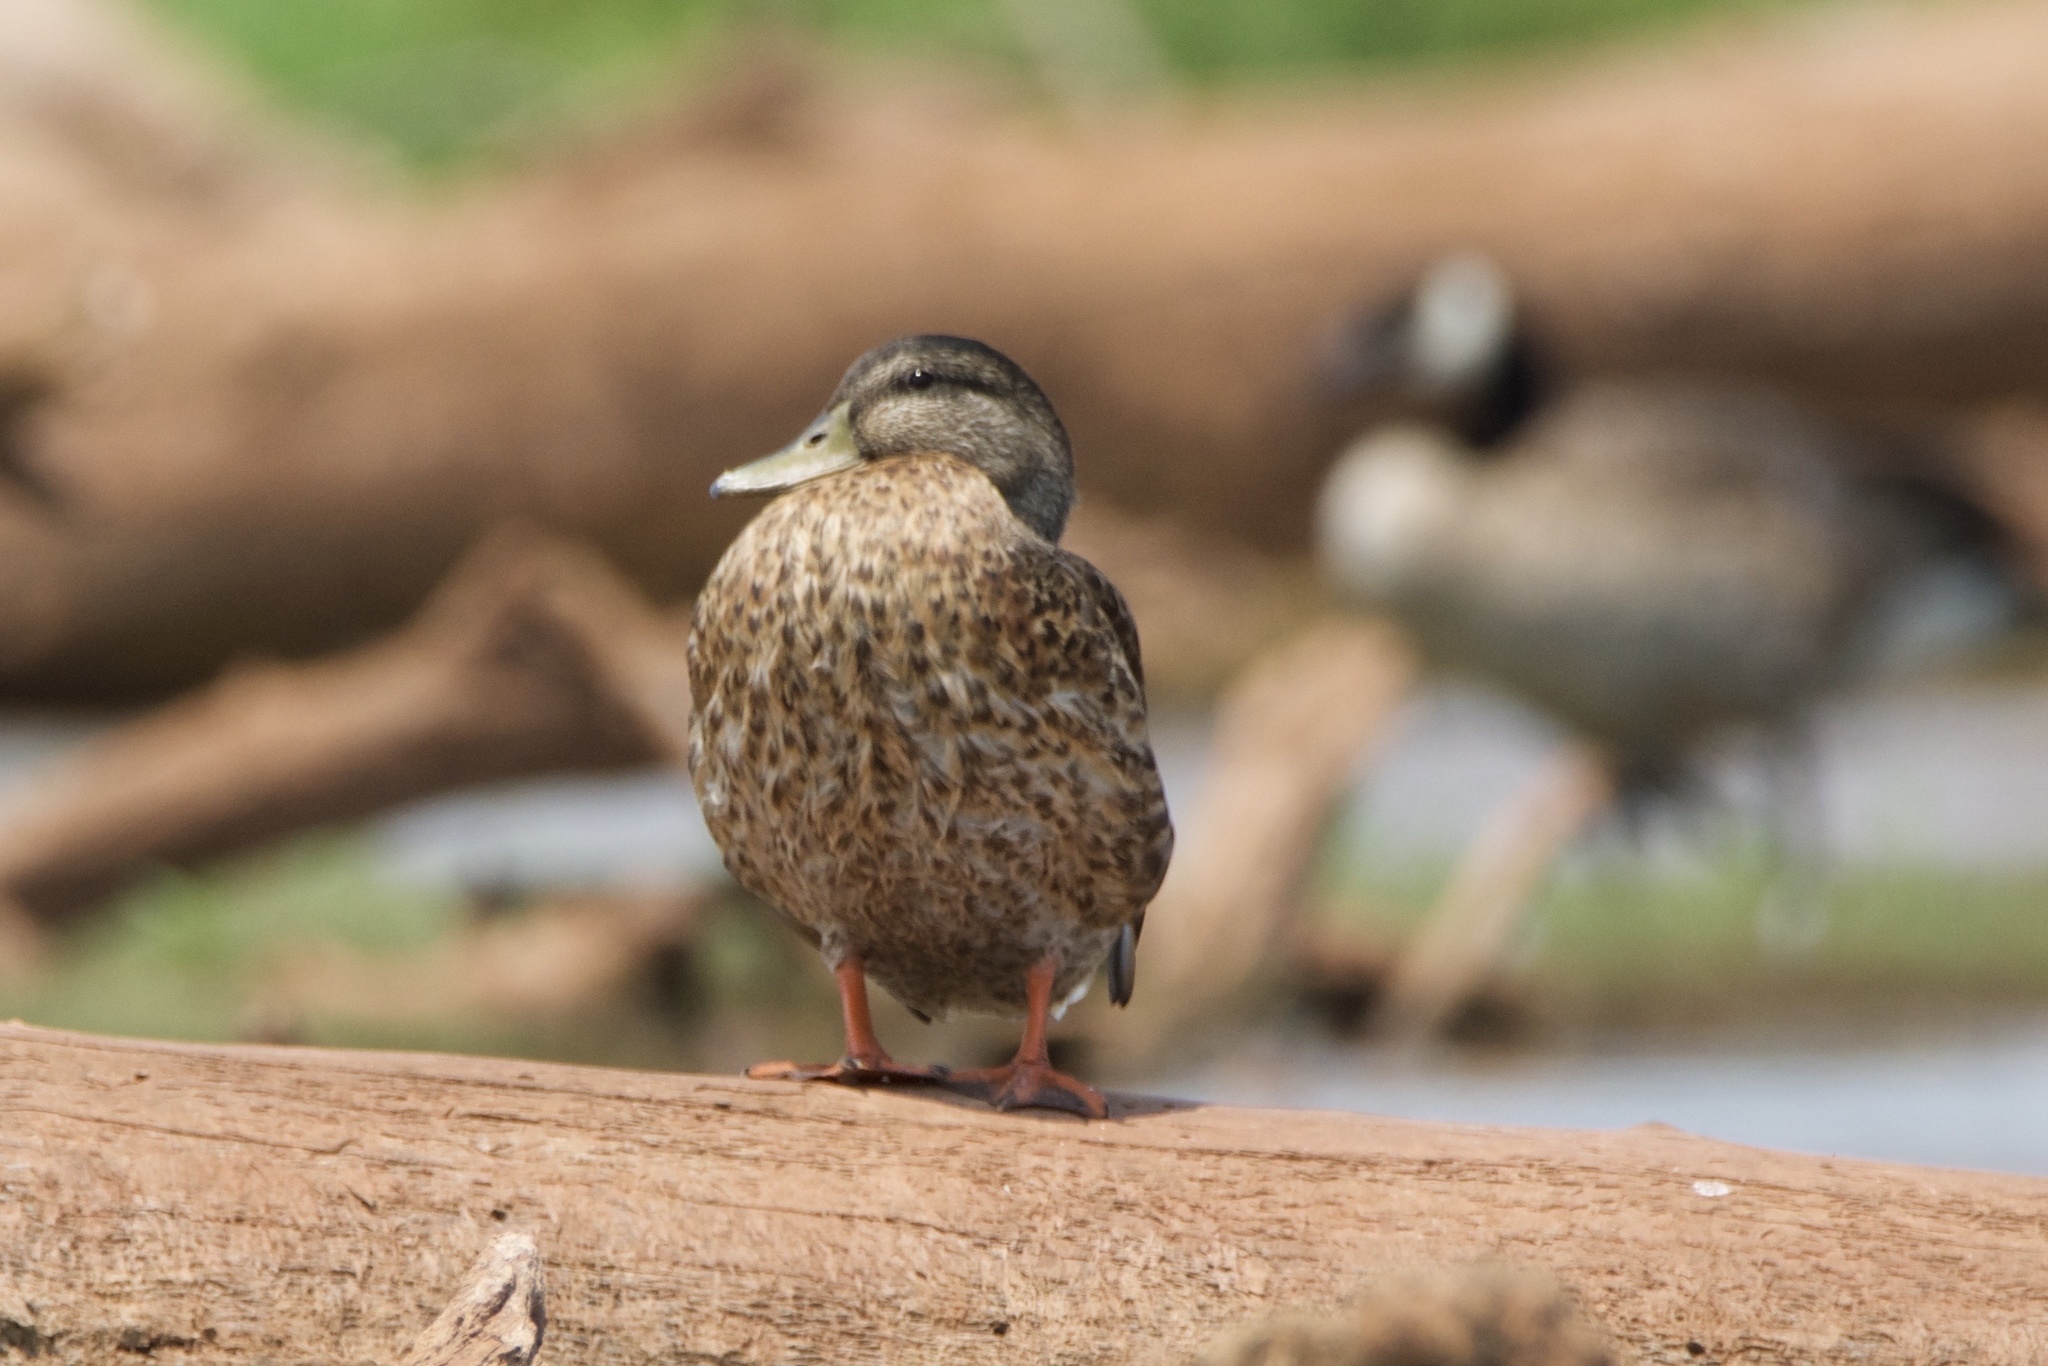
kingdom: Animalia
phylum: Chordata
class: Aves
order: Anseriformes
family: Anatidae
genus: Anas
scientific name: Anas platyrhynchos
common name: Mallard
